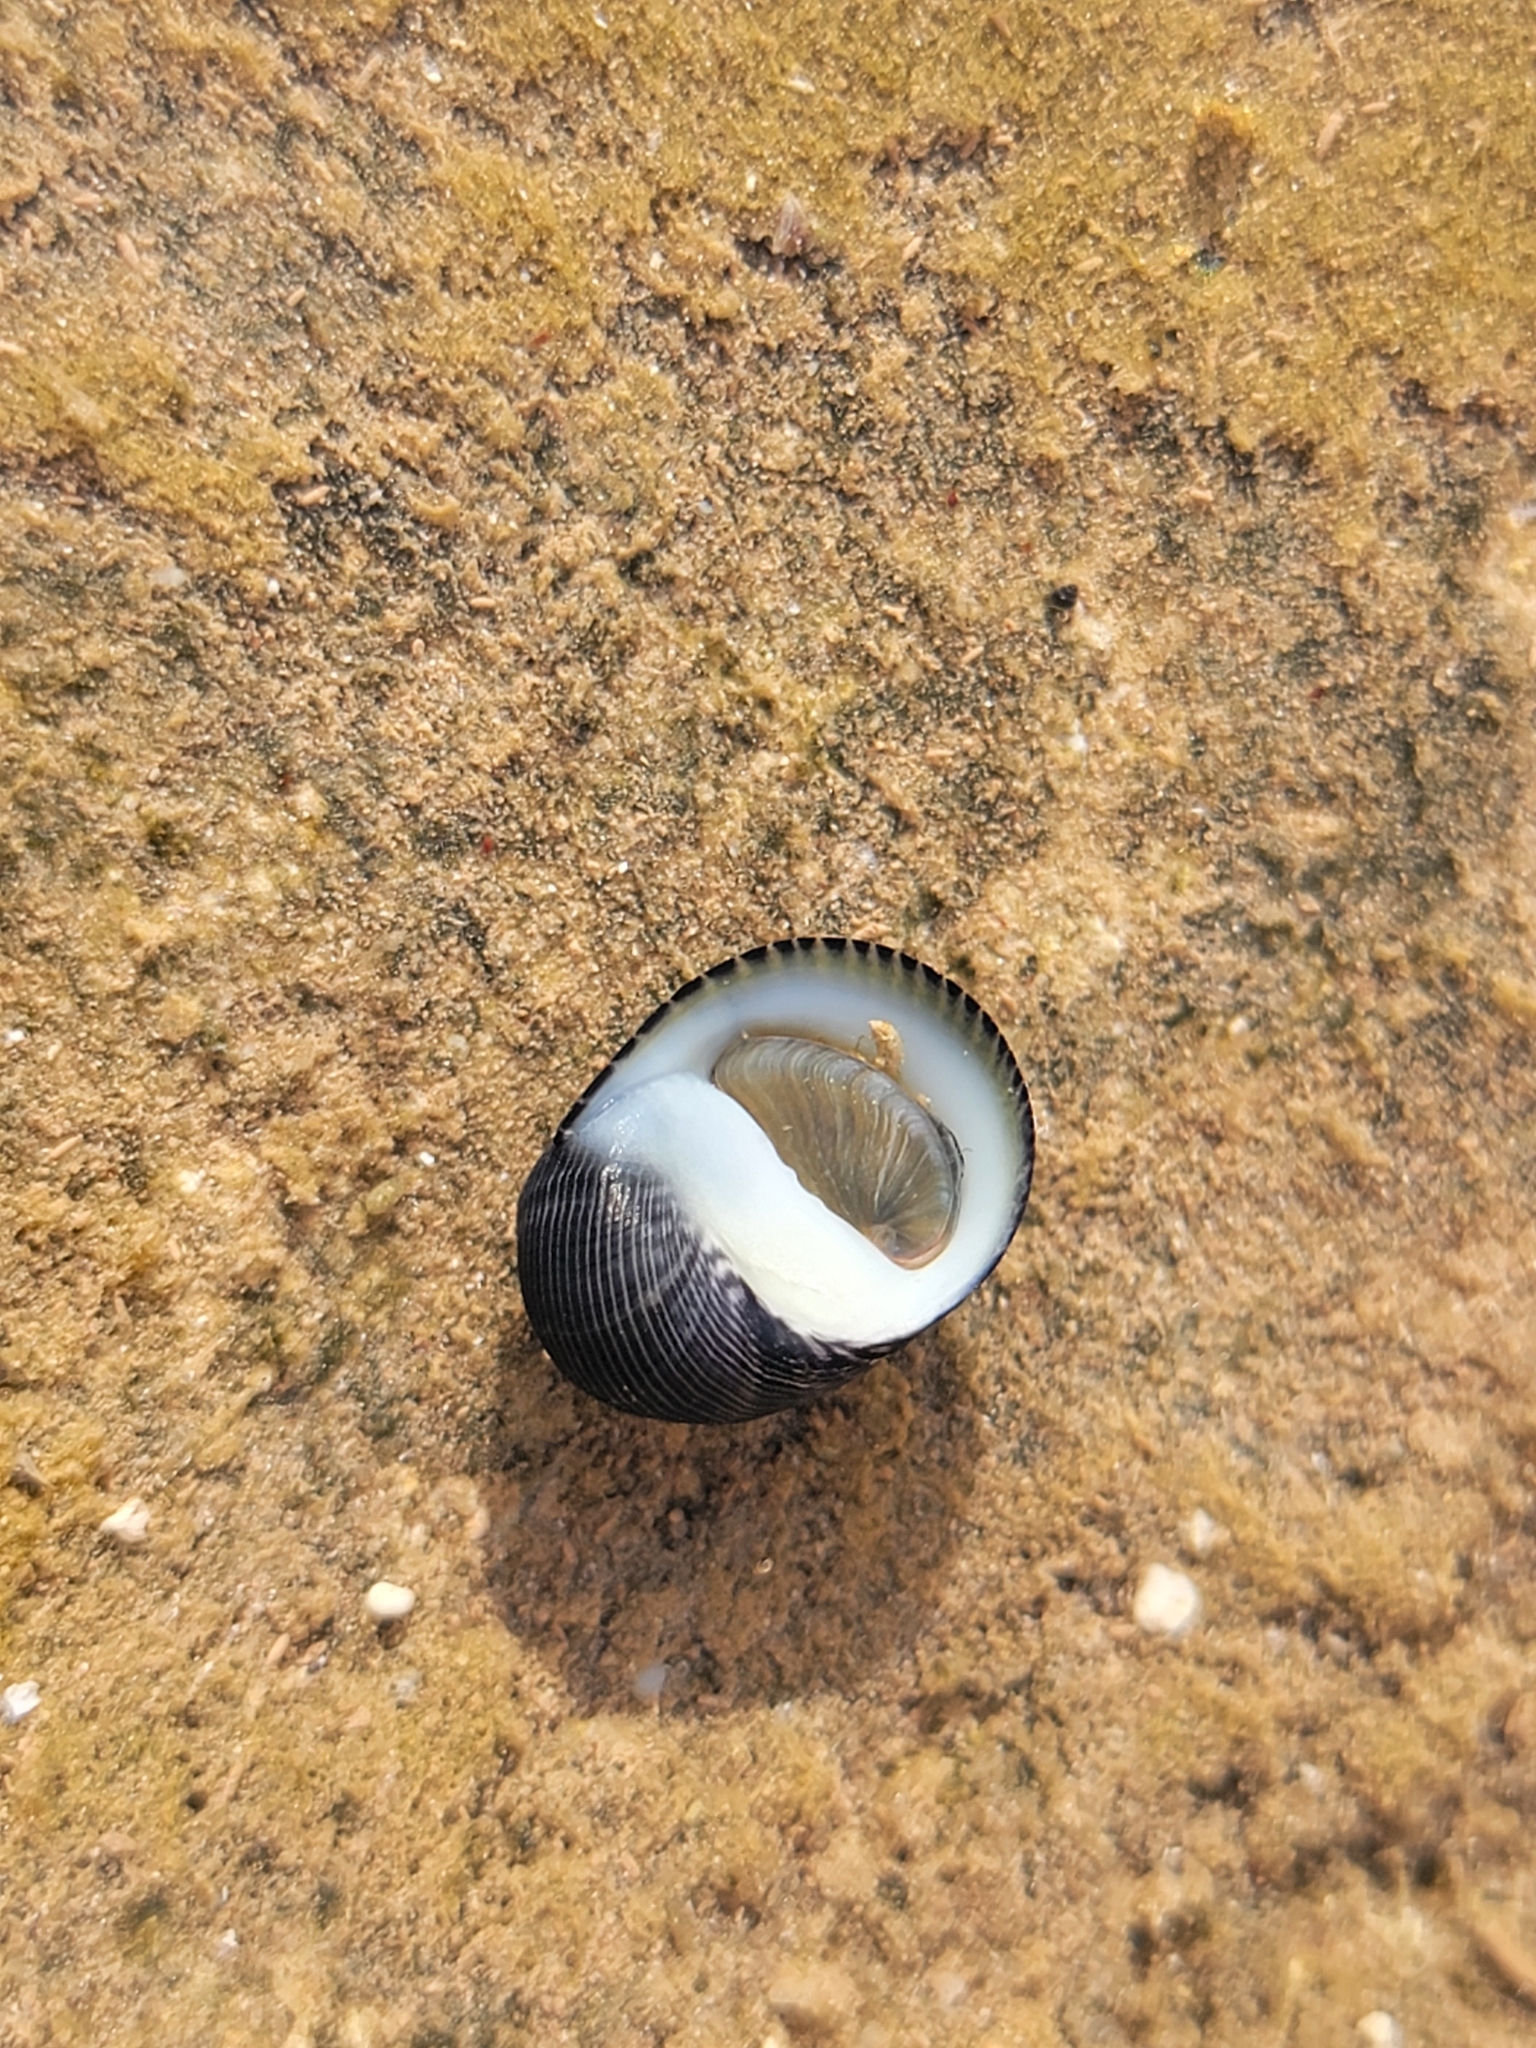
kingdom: Animalia
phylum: Mollusca
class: Gastropoda
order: Cycloneritida
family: Neritidae
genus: Nerita
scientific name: Nerita picea
